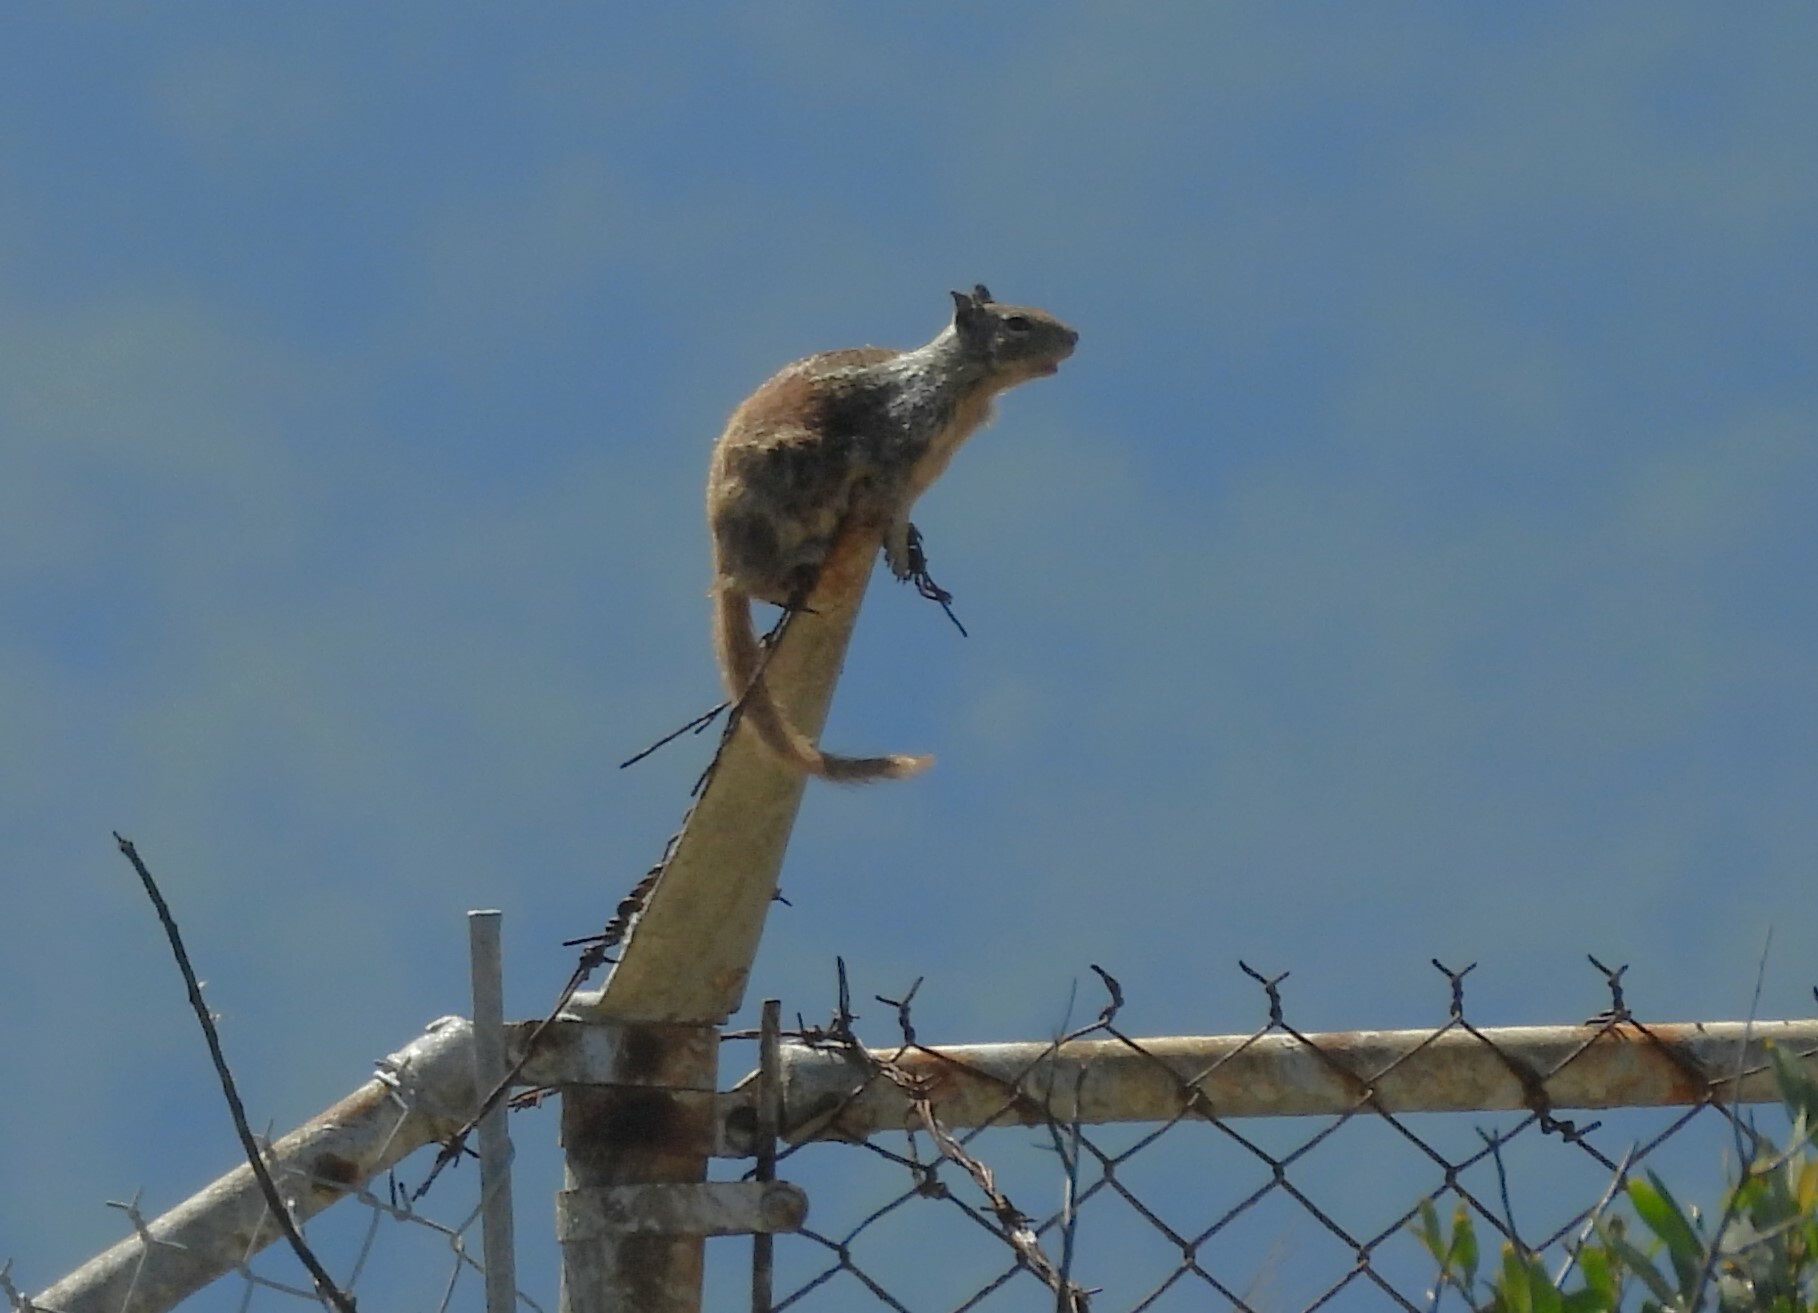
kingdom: Animalia
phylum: Chordata
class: Mammalia
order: Rodentia
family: Sciuridae
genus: Otospermophilus
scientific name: Otospermophilus beecheyi
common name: California ground squirrel
